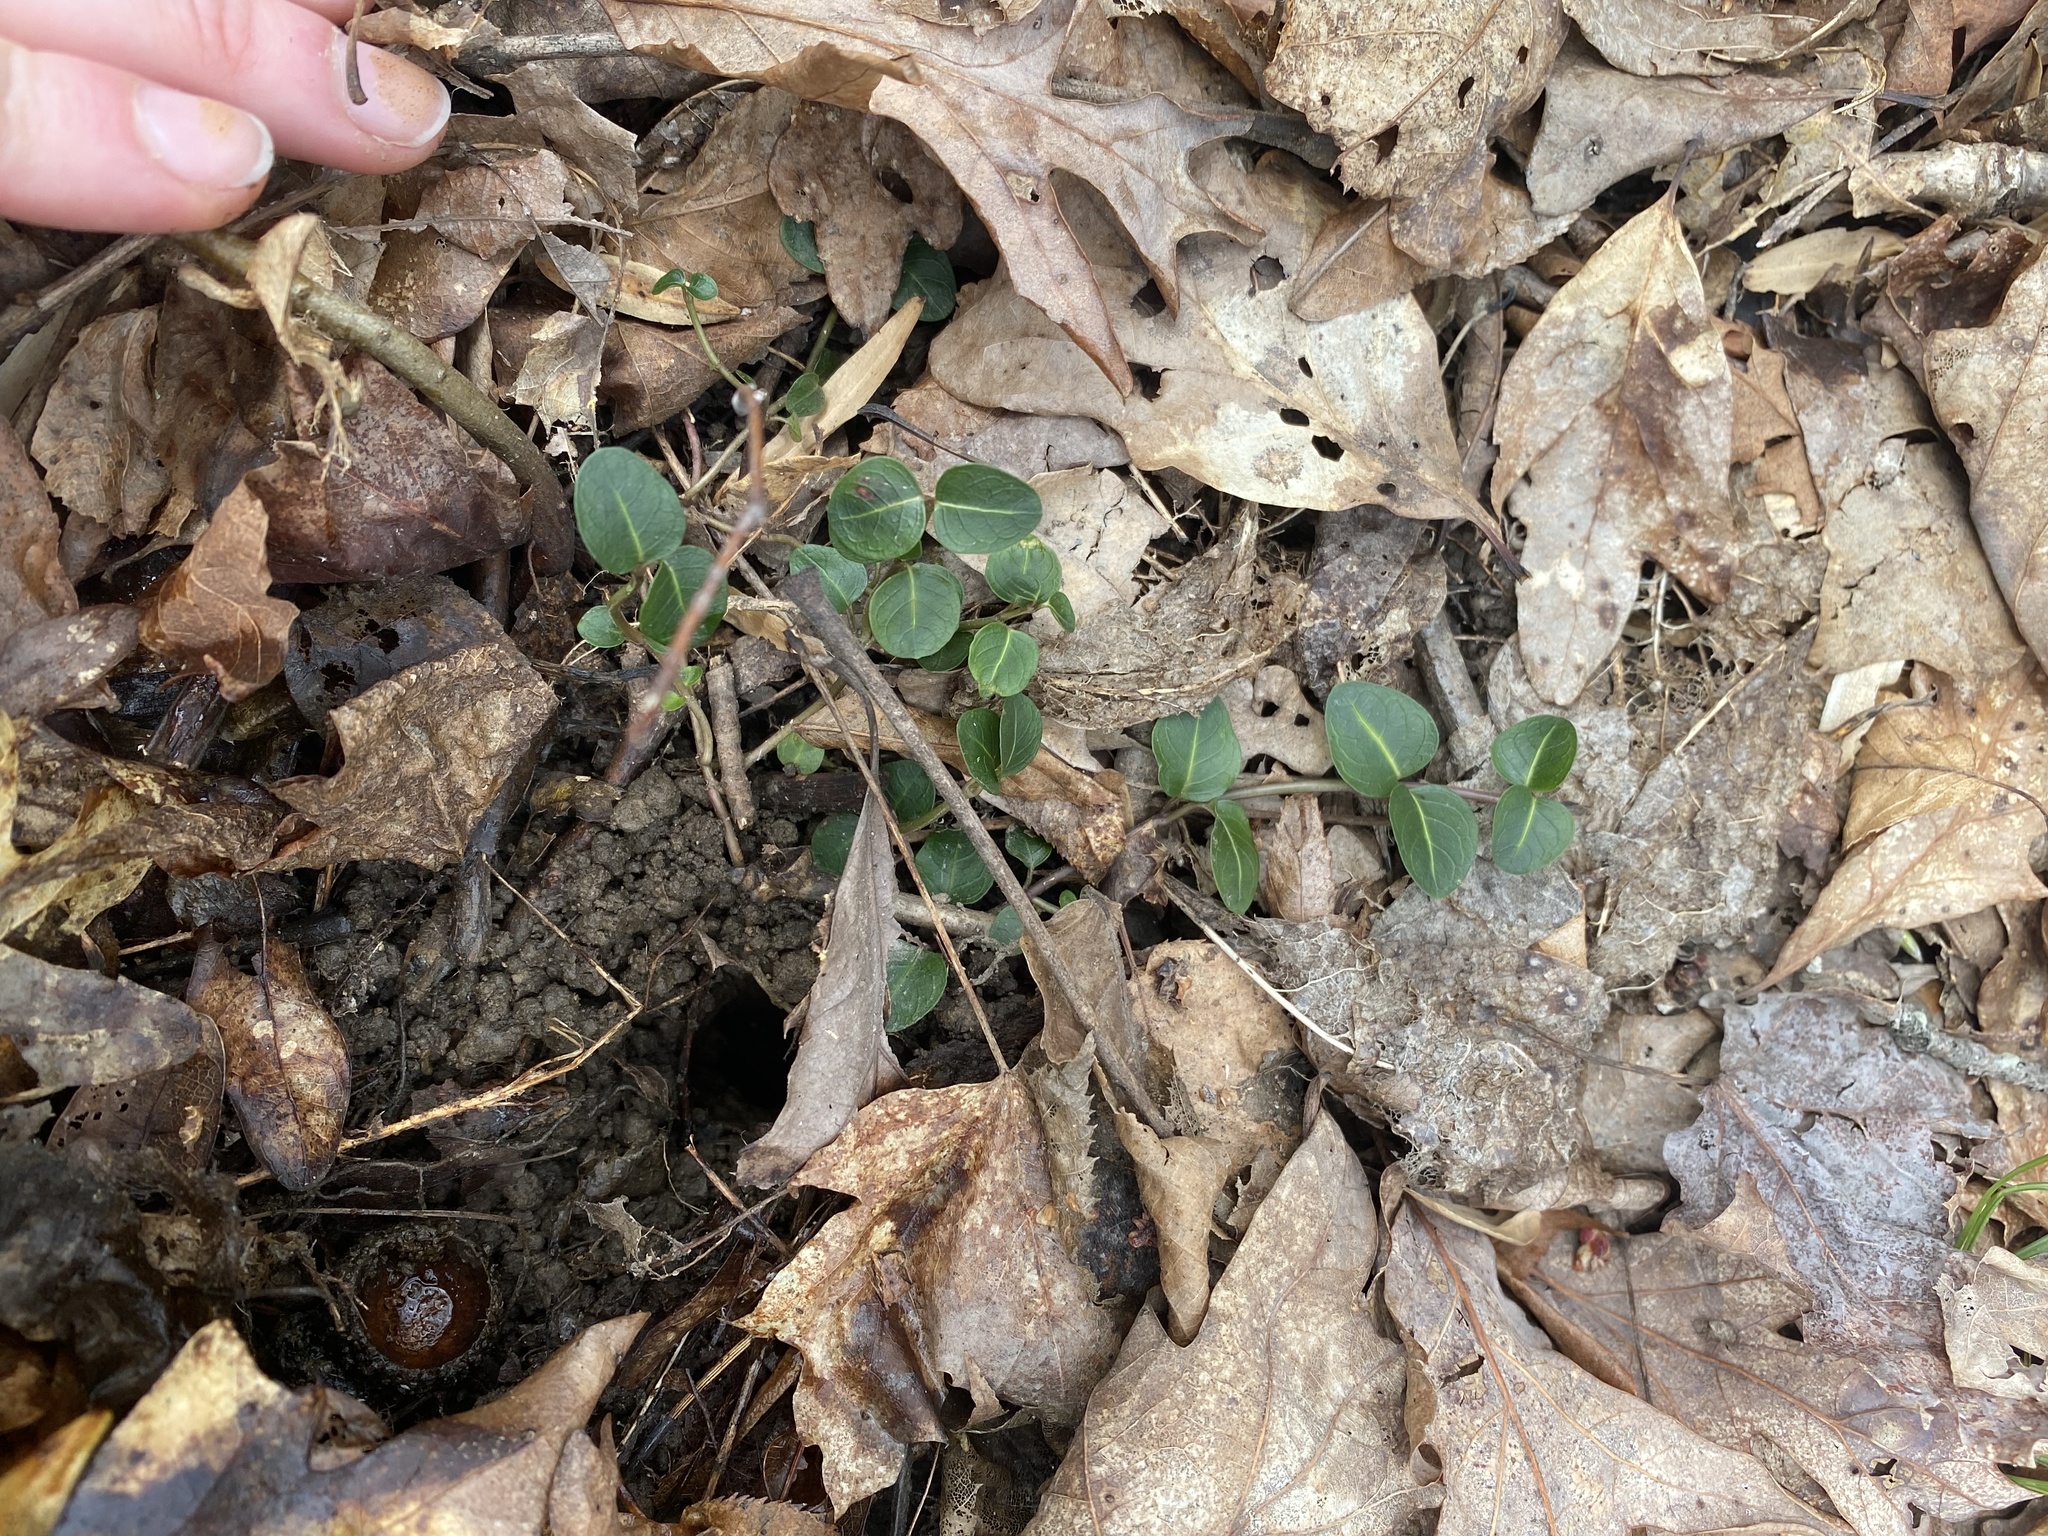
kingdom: Plantae
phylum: Tracheophyta
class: Magnoliopsida
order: Gentianales
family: Rubiaceae
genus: Mitchella
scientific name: Mitchella repens
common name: Partridge-berry
